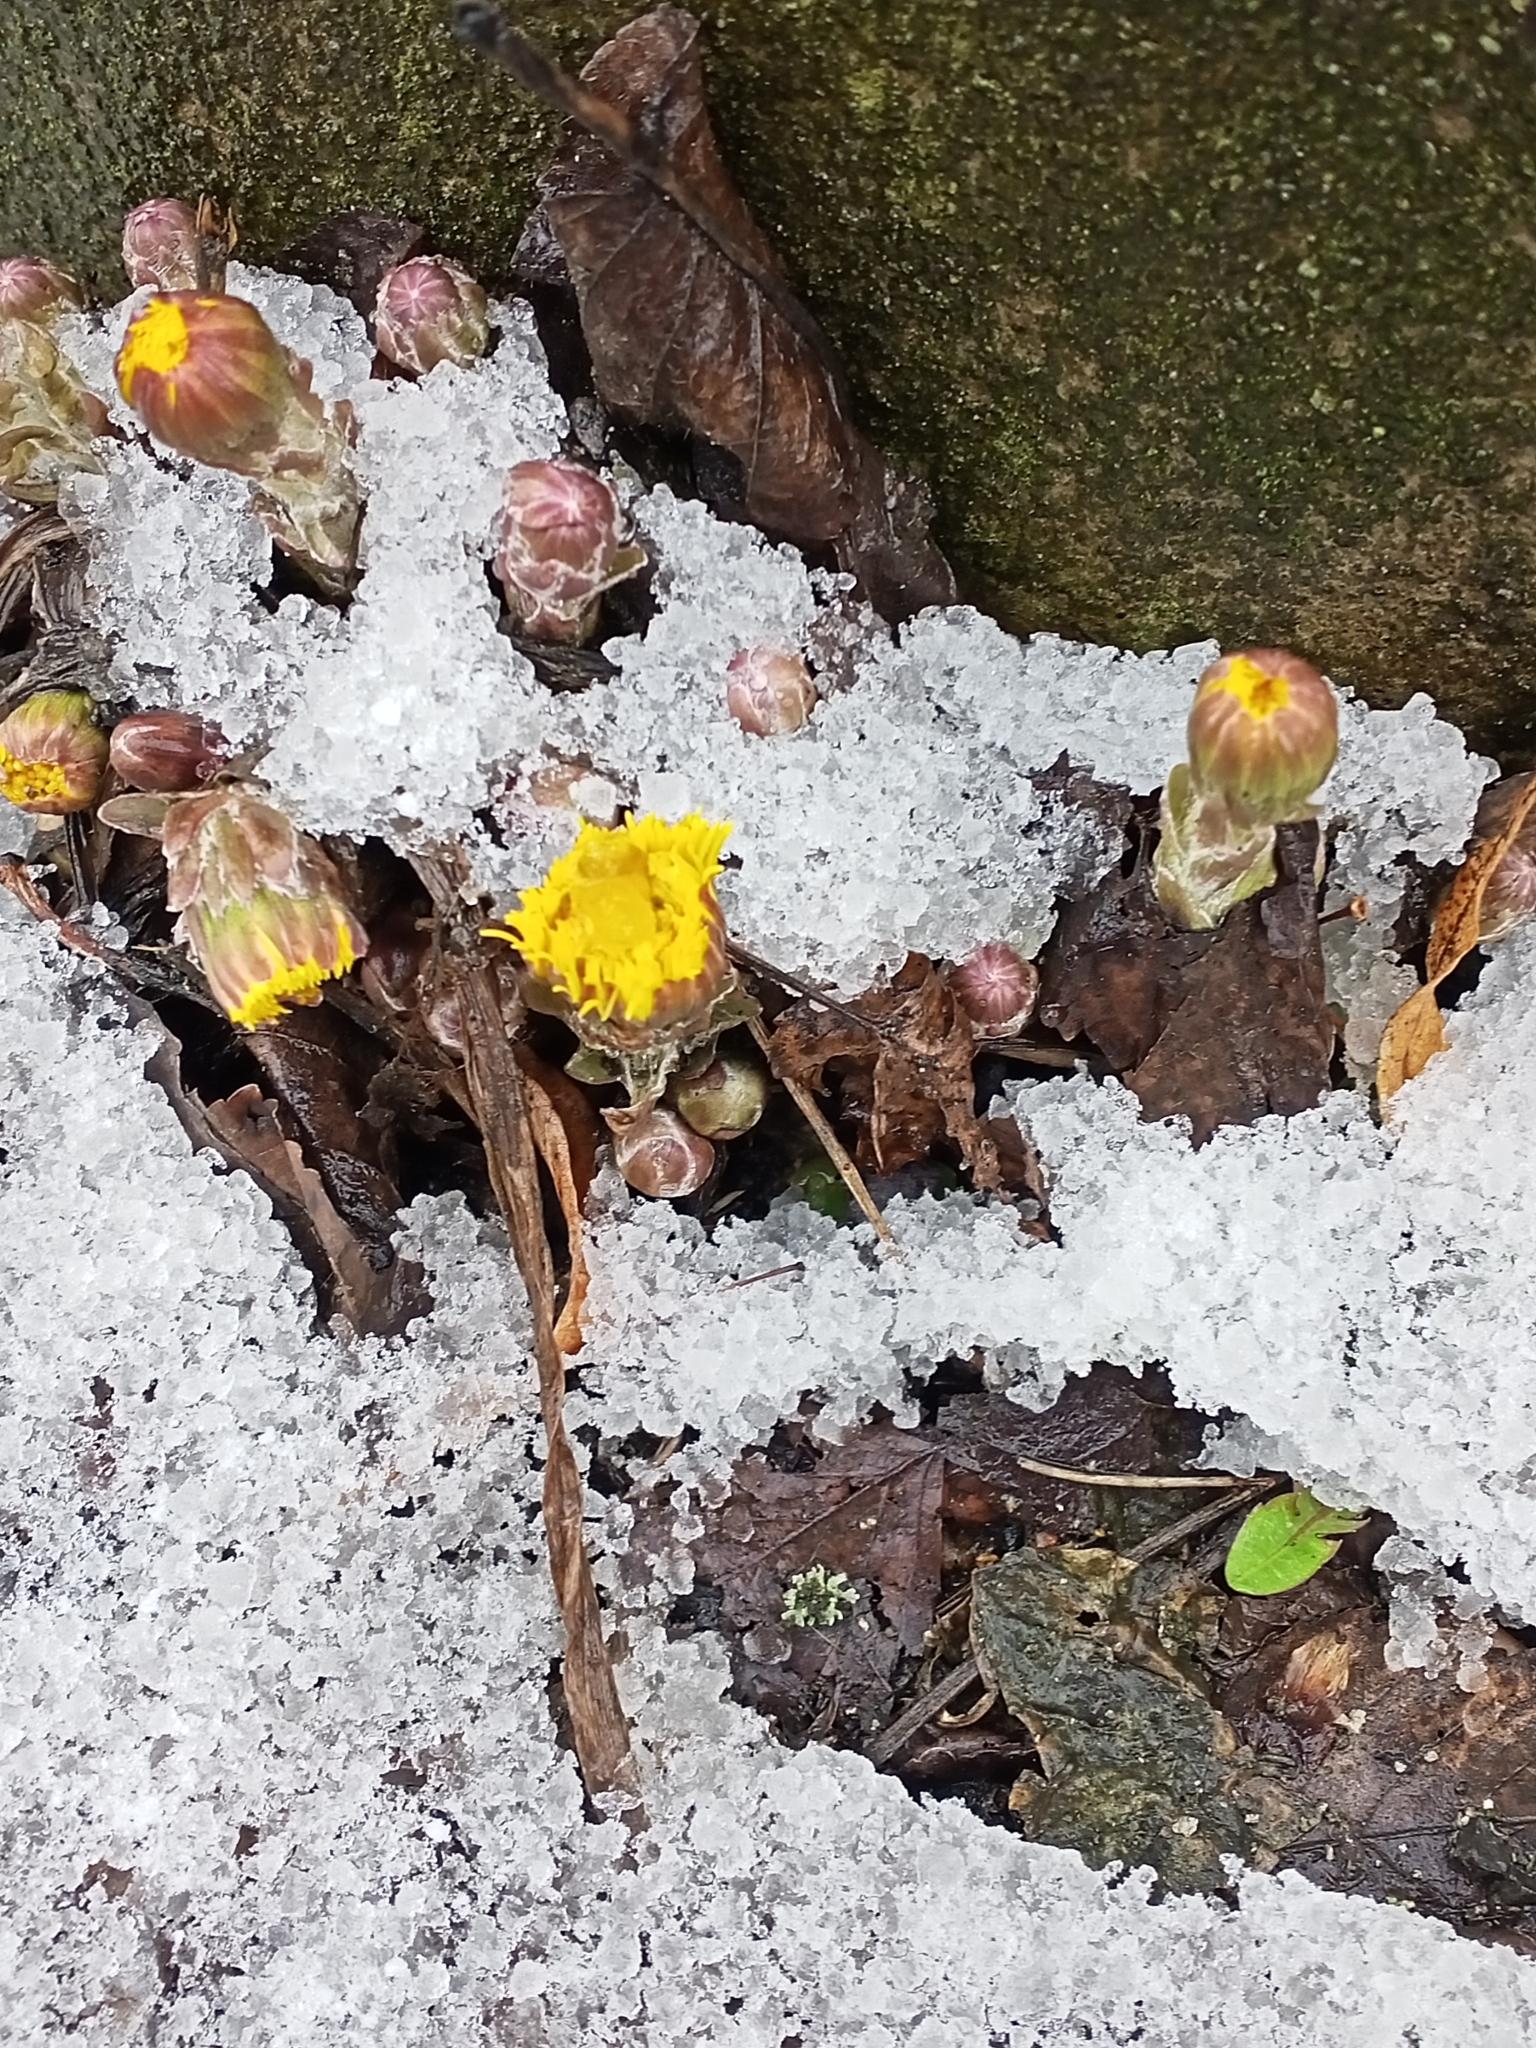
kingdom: Plantae
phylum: Tracheophyta
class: Magnoliopsida
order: Asterales
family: Asteraceae
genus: Tussilago
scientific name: Tussilago farfara
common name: Coltsfoot
